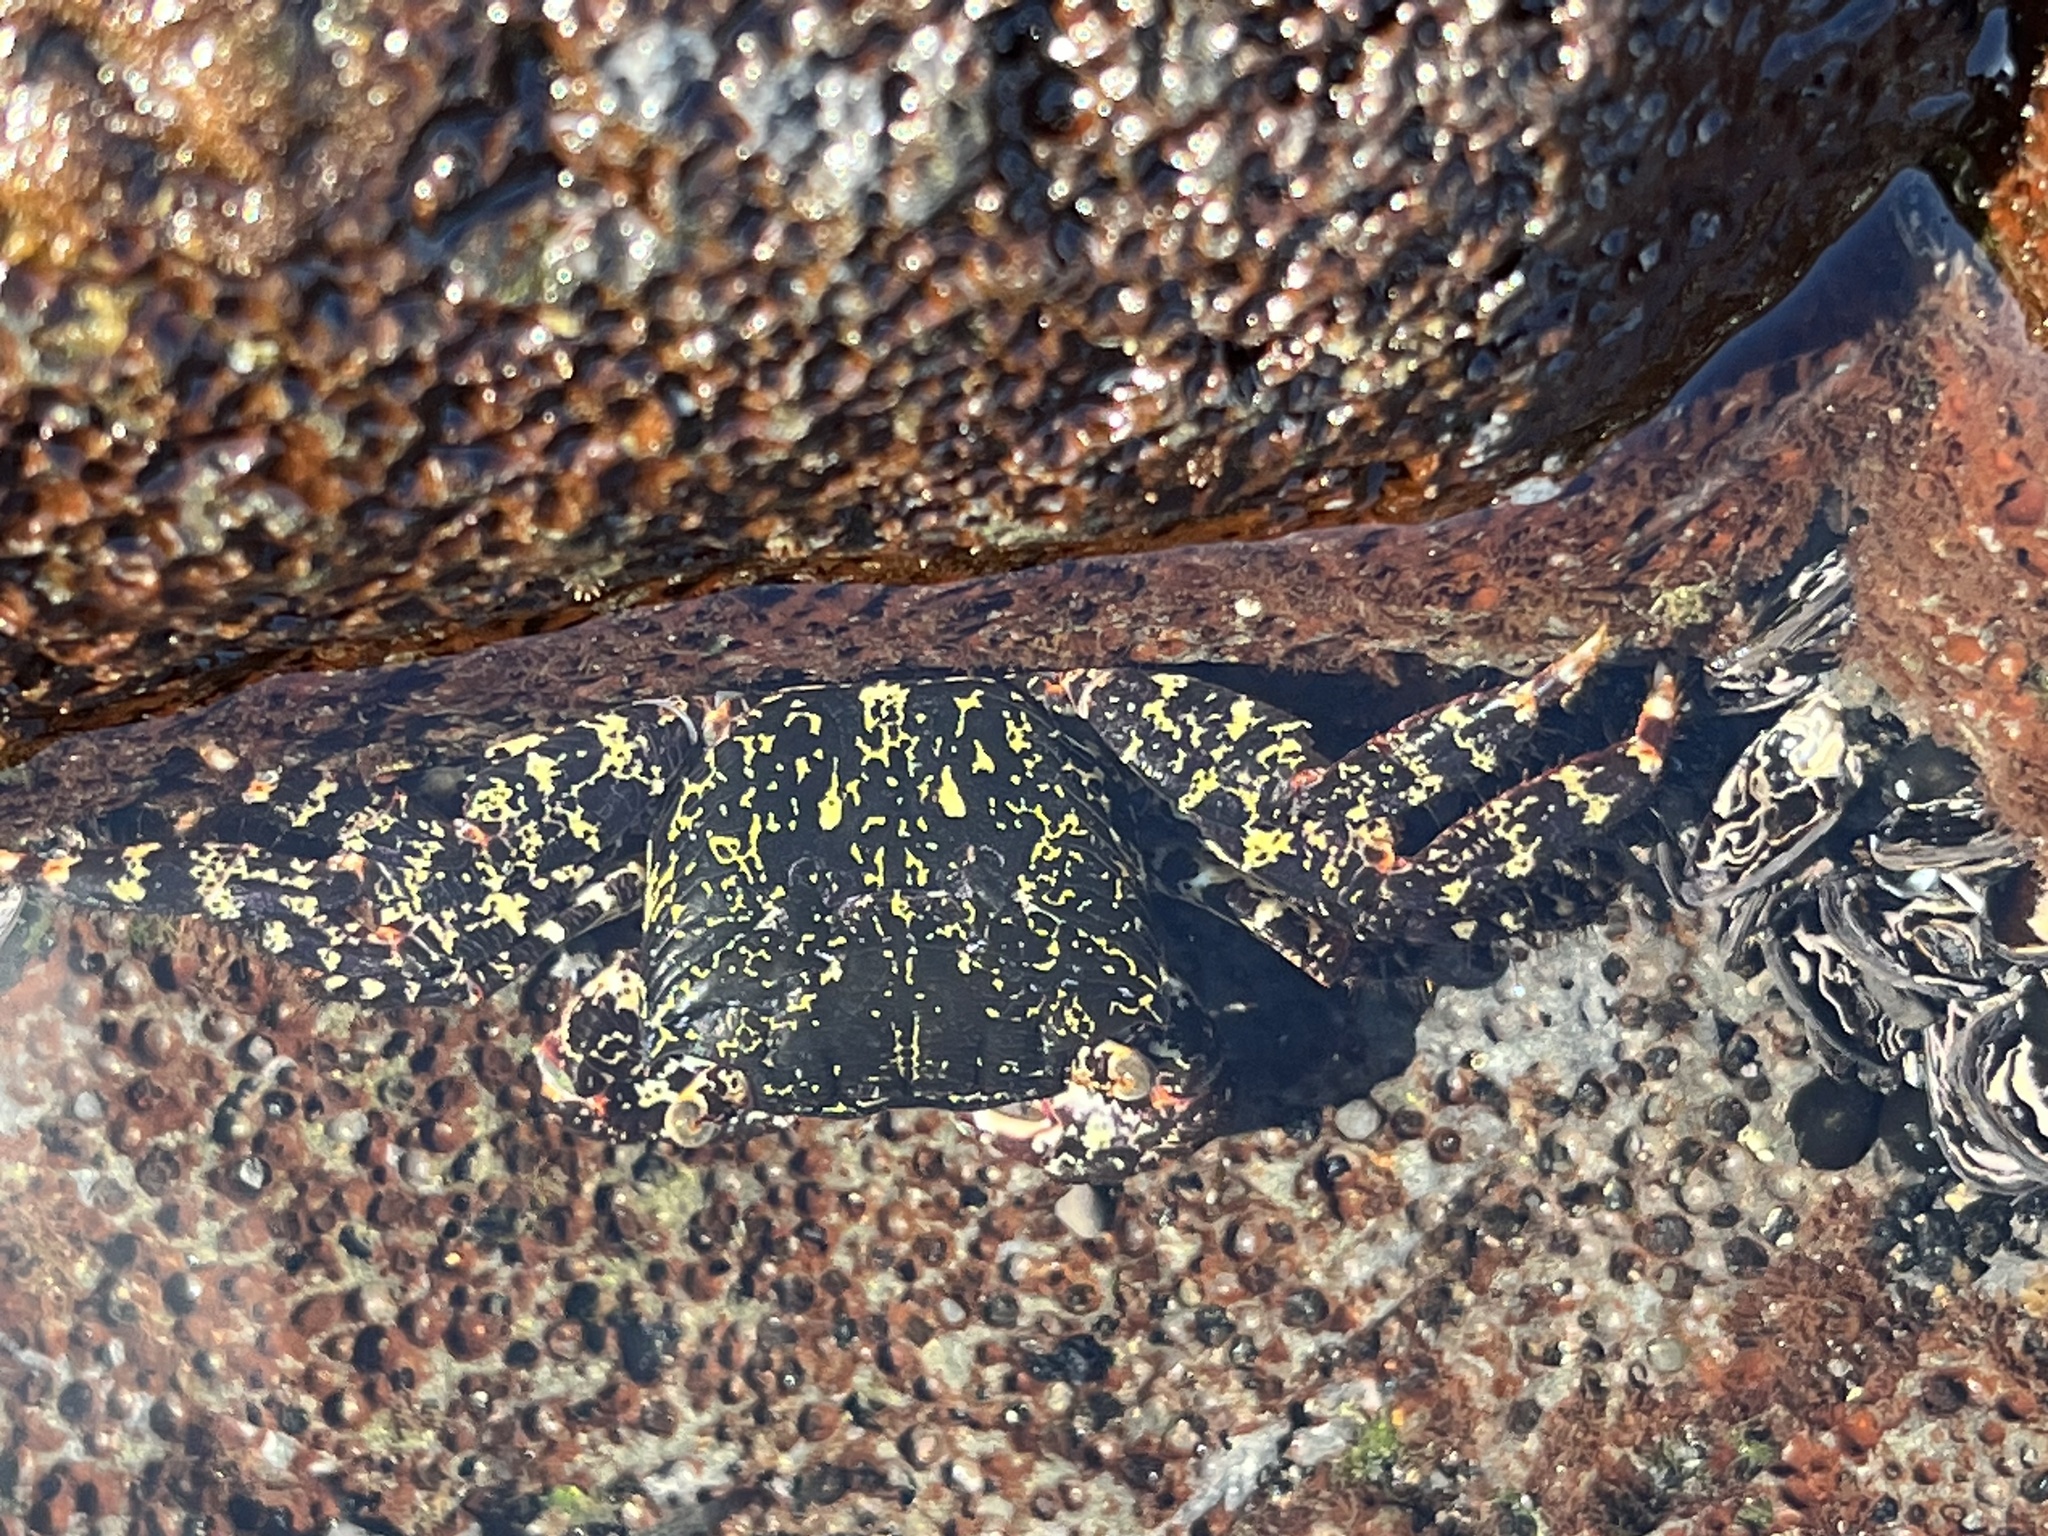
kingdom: Animalia
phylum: Arthropoda
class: Malacostraca
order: Decapoda
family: Grapsidae
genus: Metopograpsus
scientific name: Metopograpsus thukuhar
